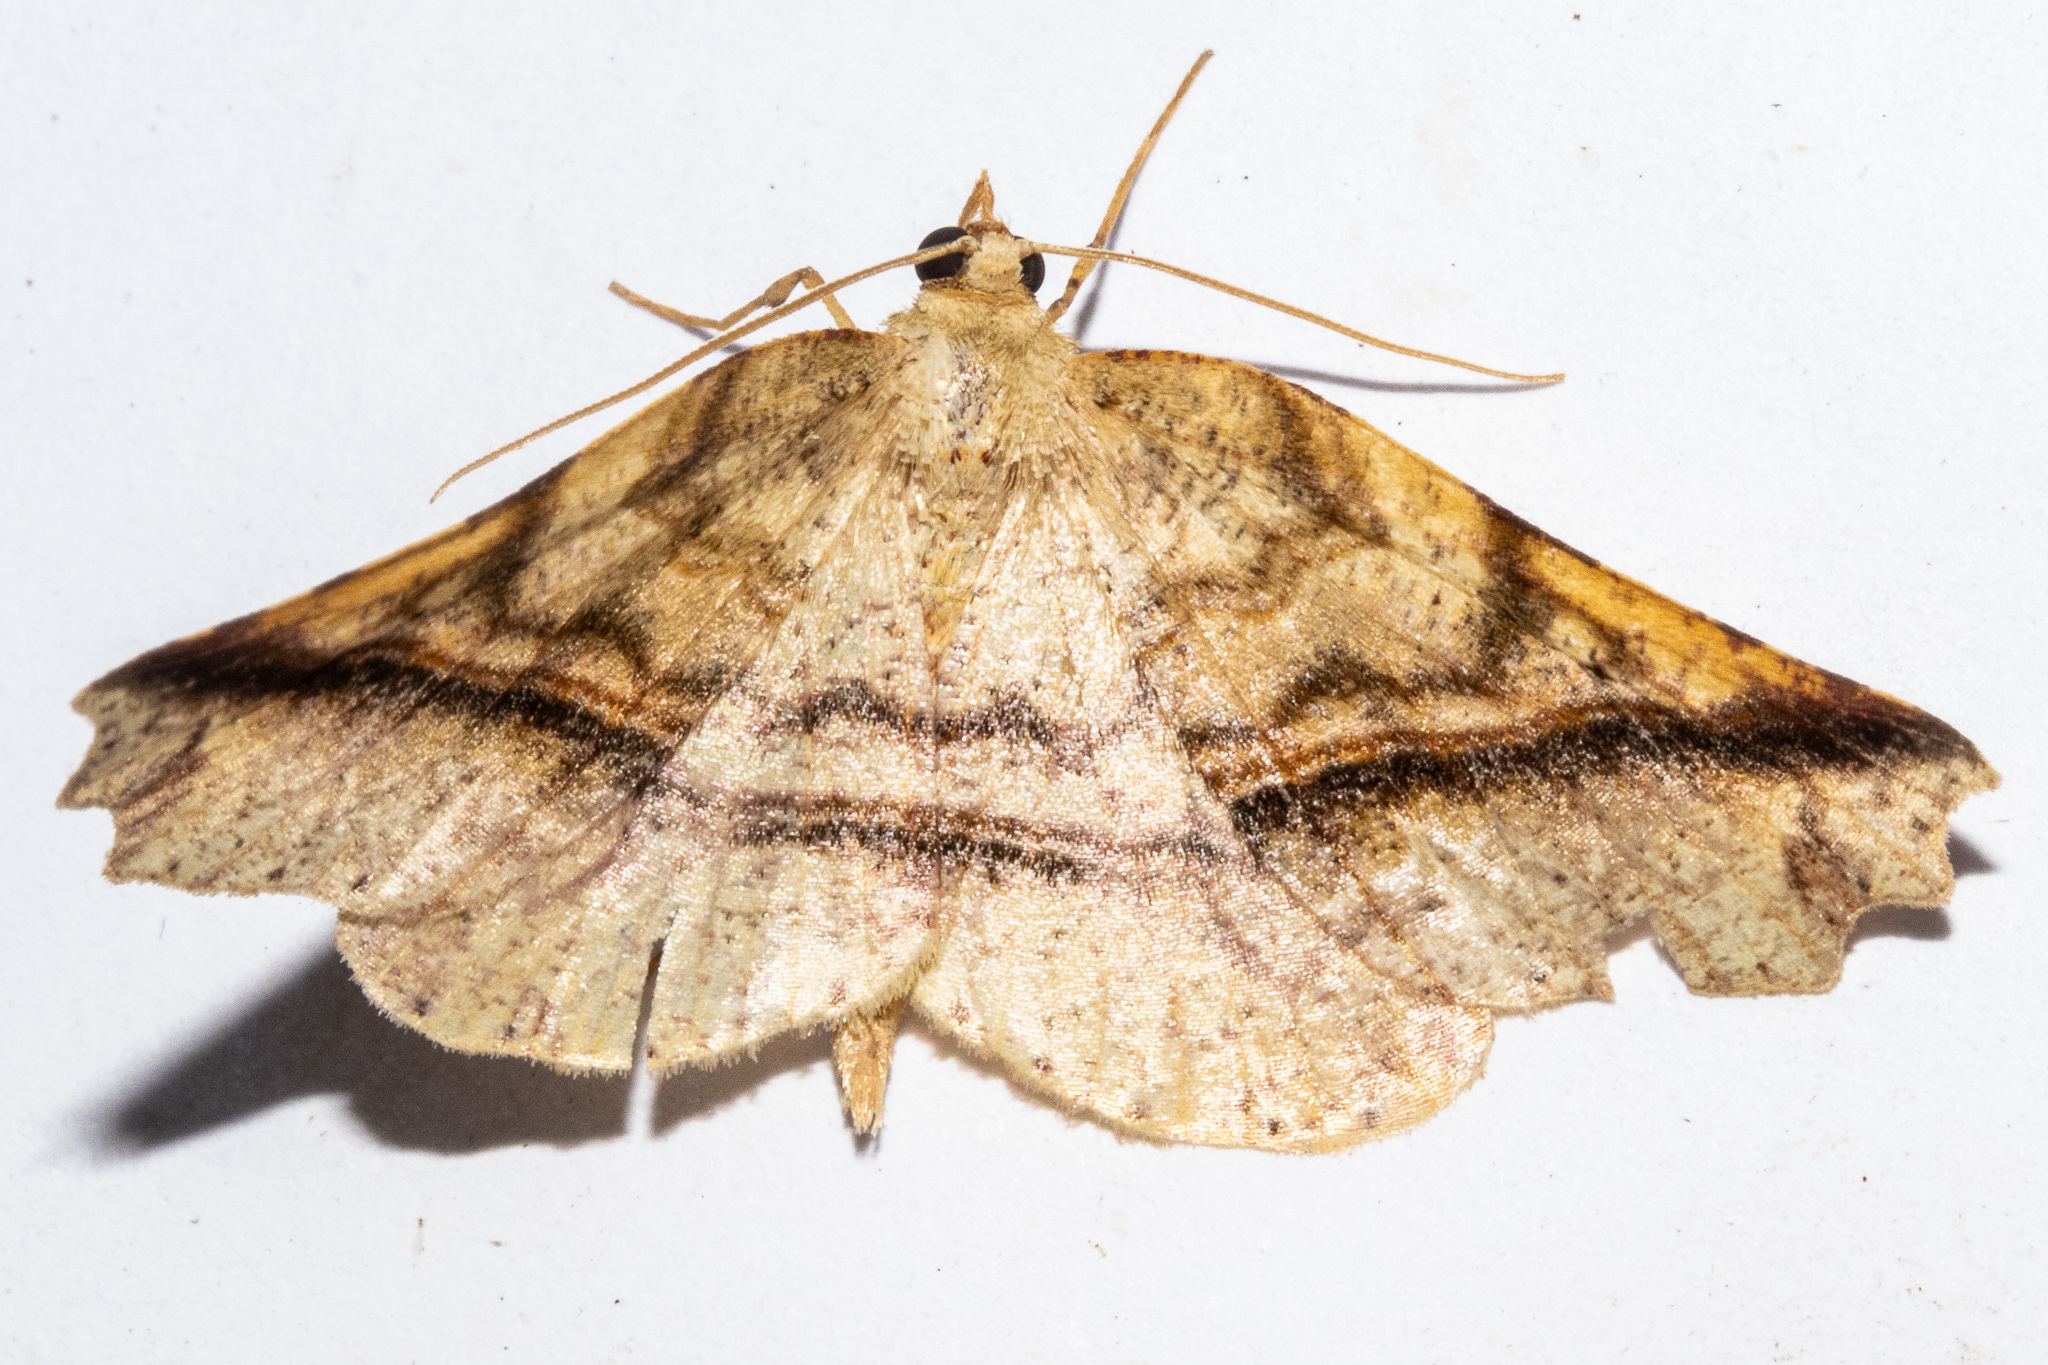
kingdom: Animalia
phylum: Arthropoda
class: Insecta
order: Lepidoptera
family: Geometridae
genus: Ischalis
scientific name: Ischalis gallaria
